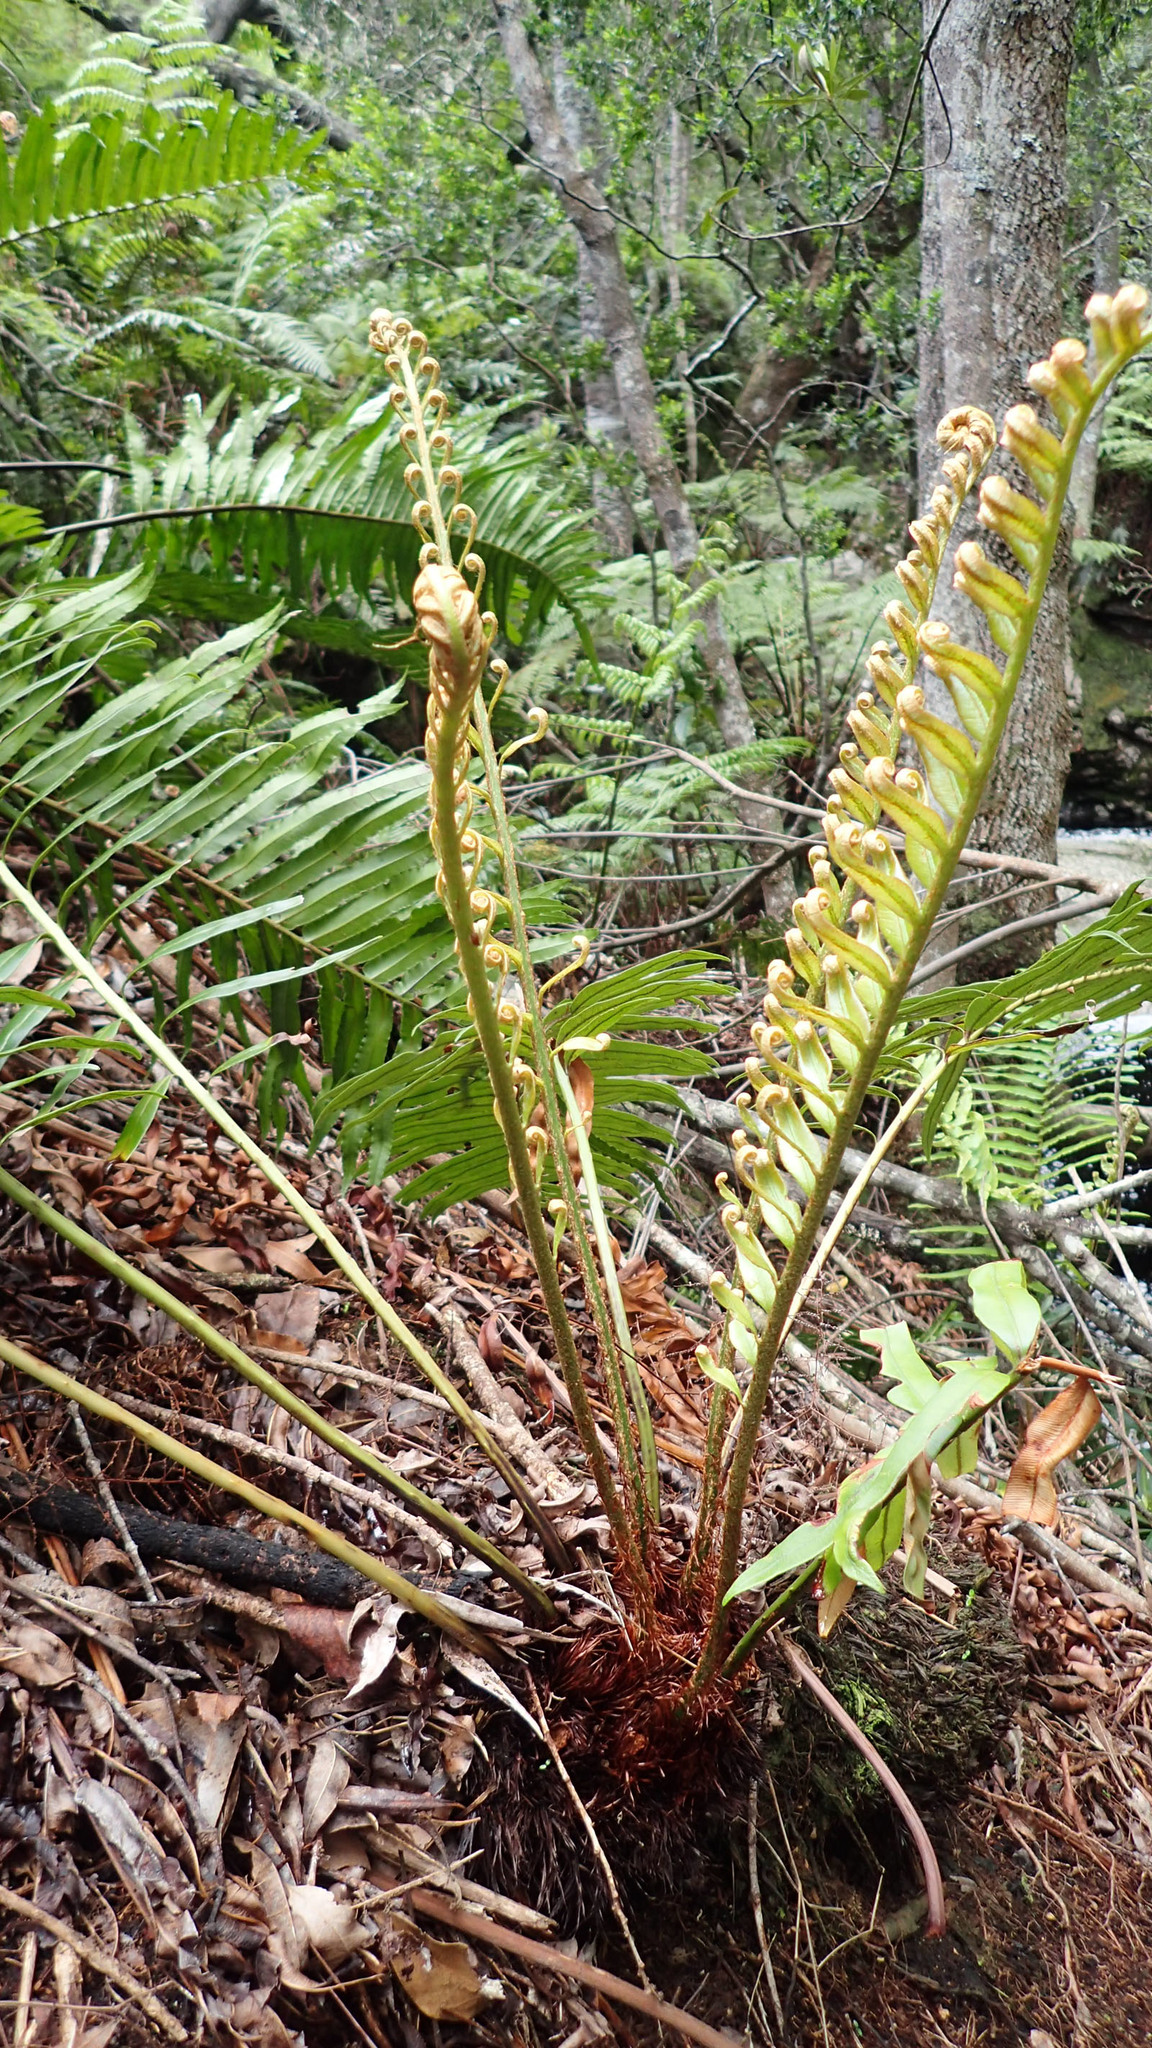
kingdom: Plantae
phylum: Tracheophyta
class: Polypodiopsida
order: Polypodiales
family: Blechnaceae
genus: Lomariocycas
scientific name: Lomariocycas tabularis
